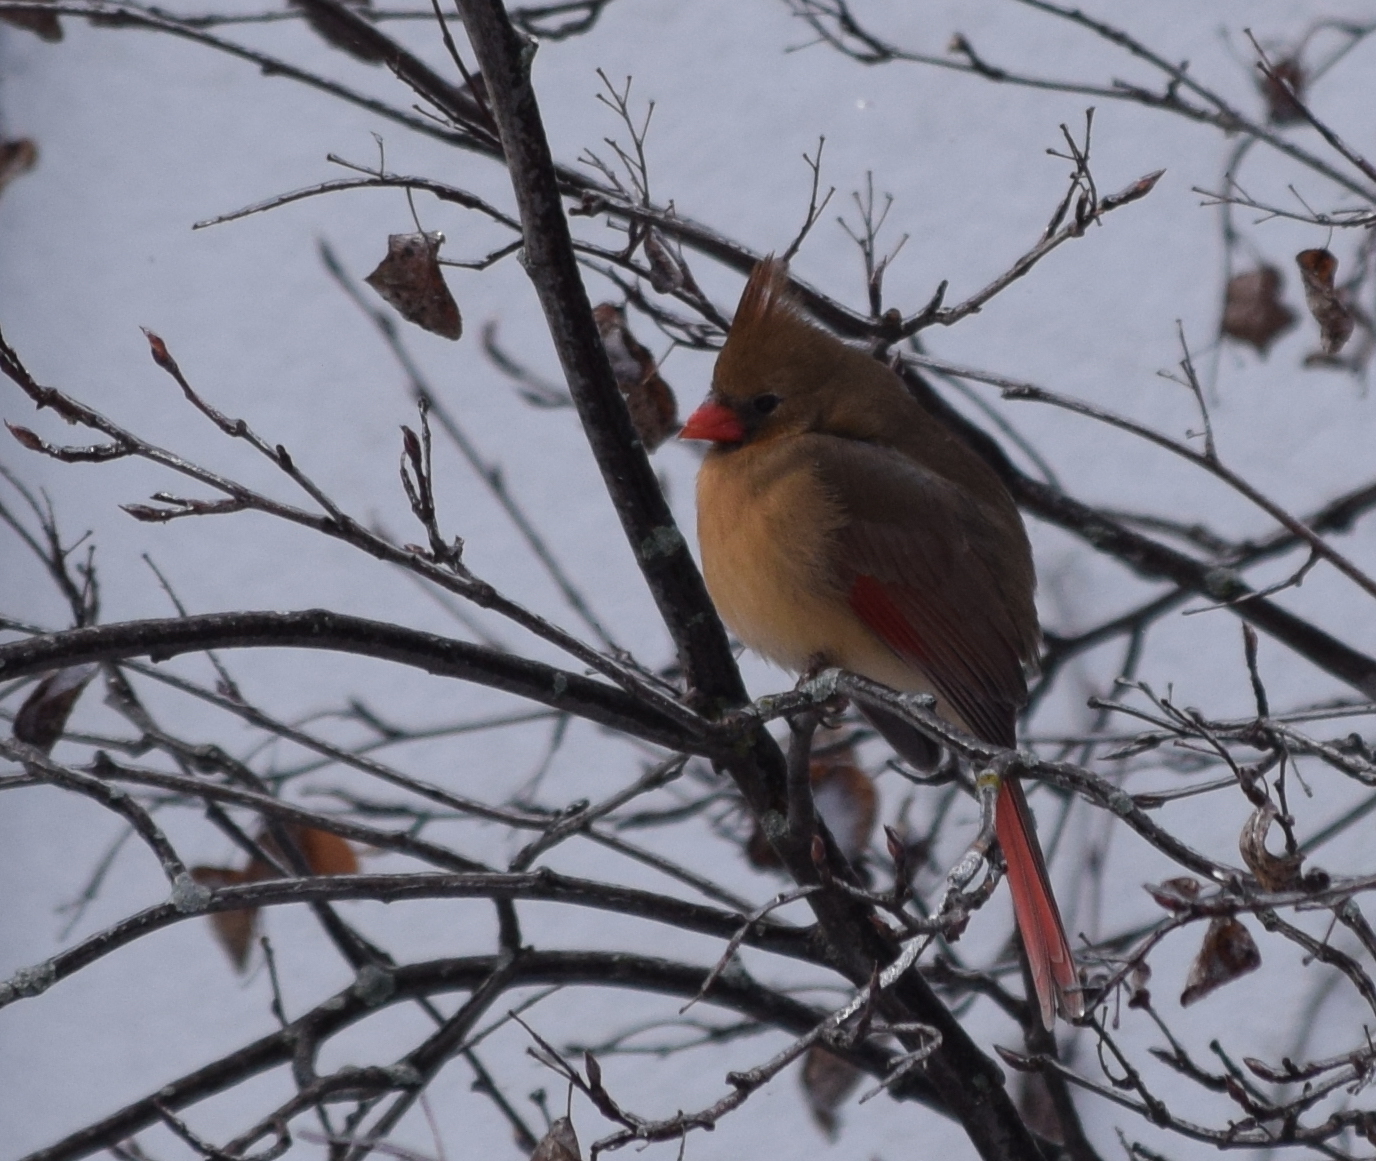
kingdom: Animalia
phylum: Chordata
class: Aves
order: Passeriformes
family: Cardinalidae
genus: Cardinalis
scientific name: Cardinalis cardinalis
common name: Northern cardinal
